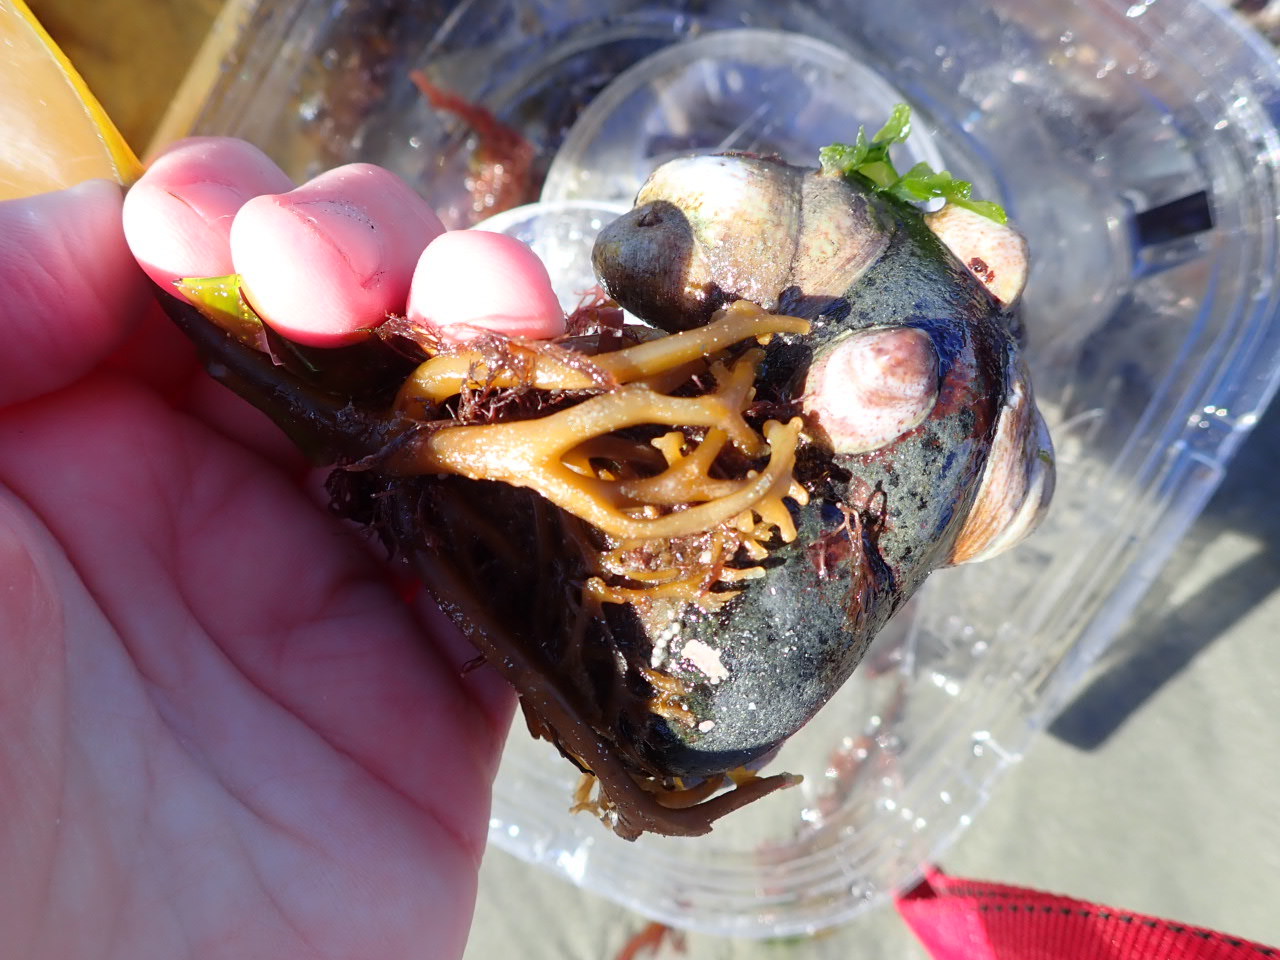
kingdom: Animalia
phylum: Mollusca
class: Gastropoda
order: Littorinimorpha
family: Calyptraeidae
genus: Crepidula
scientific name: Crepidula fornicata
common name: Slipper limpet
